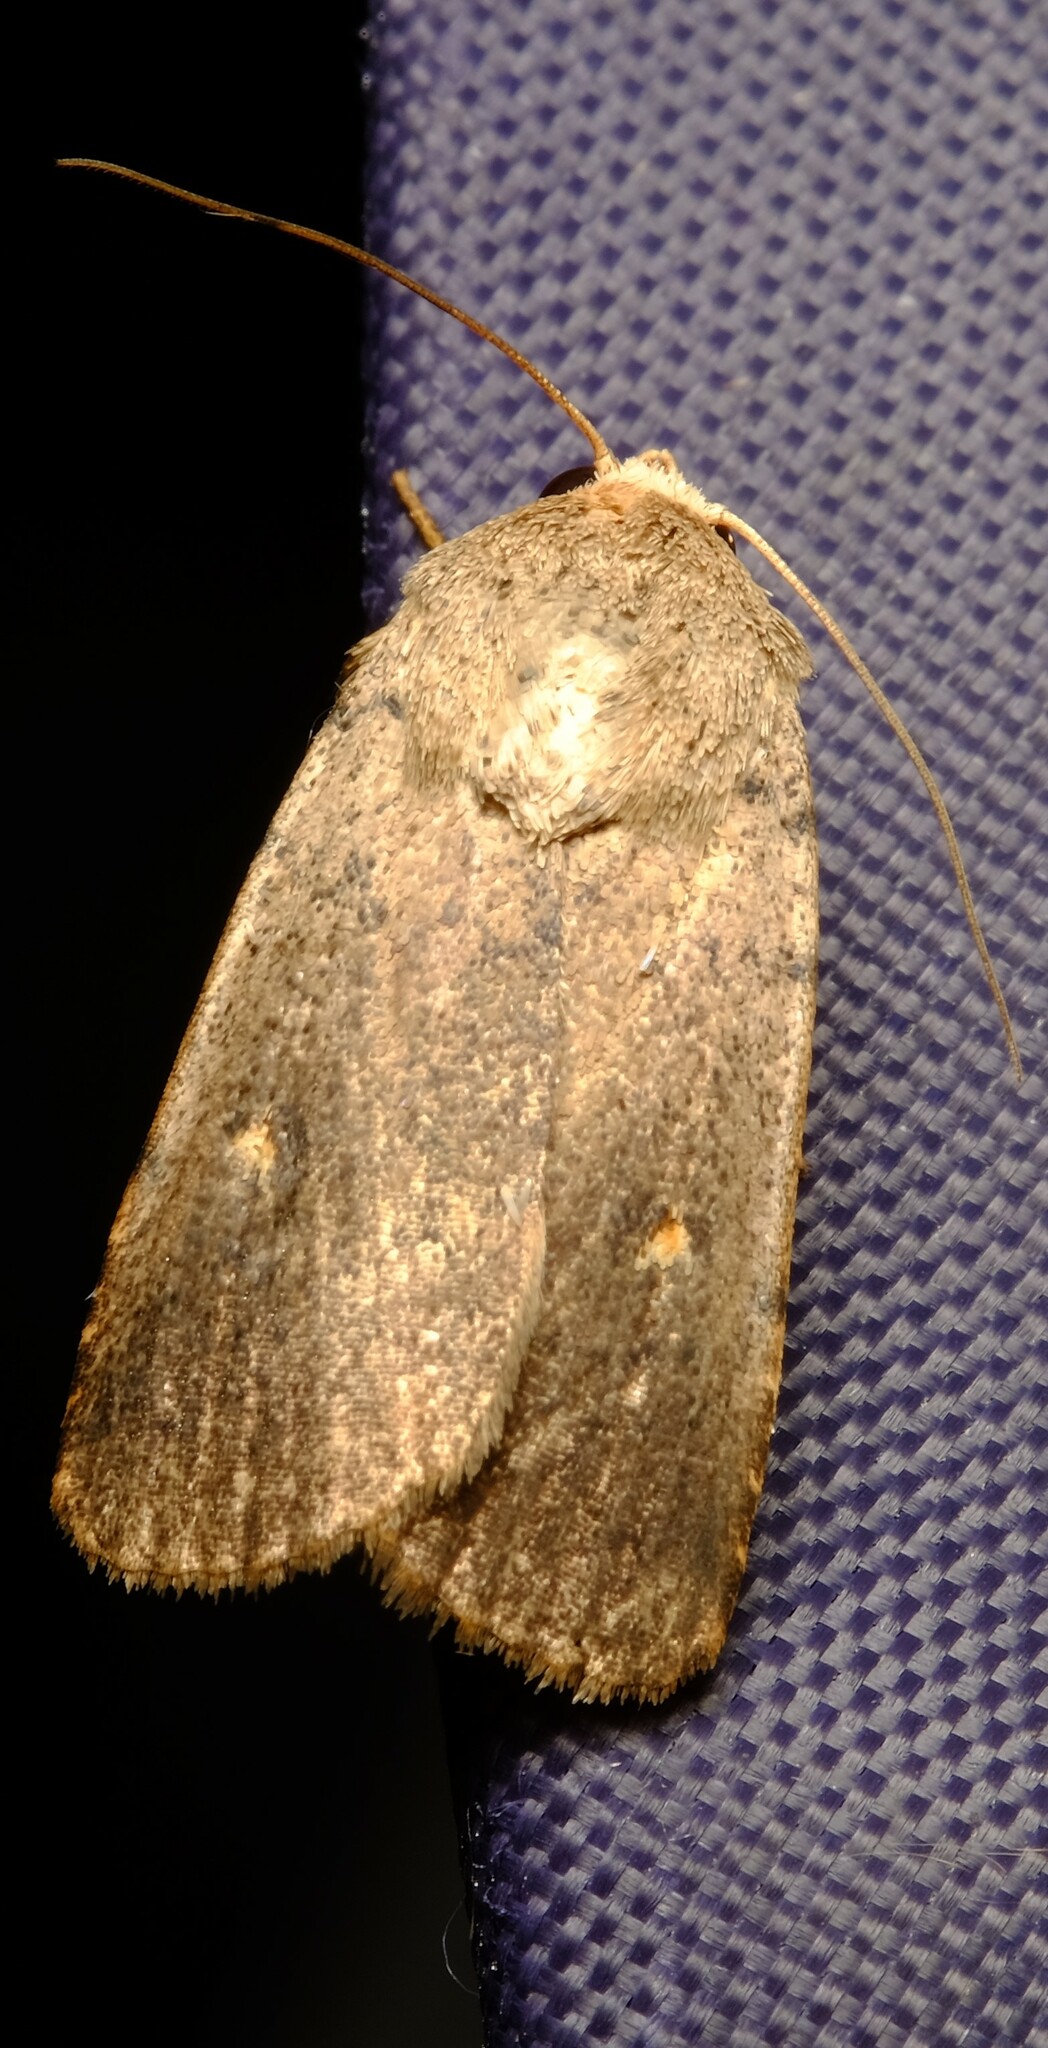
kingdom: Animalia
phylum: Arthropoda
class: Insecta
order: Lepidoptera
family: Noctuidae
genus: Proteuxoa
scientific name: Proteuxoa adelopa
